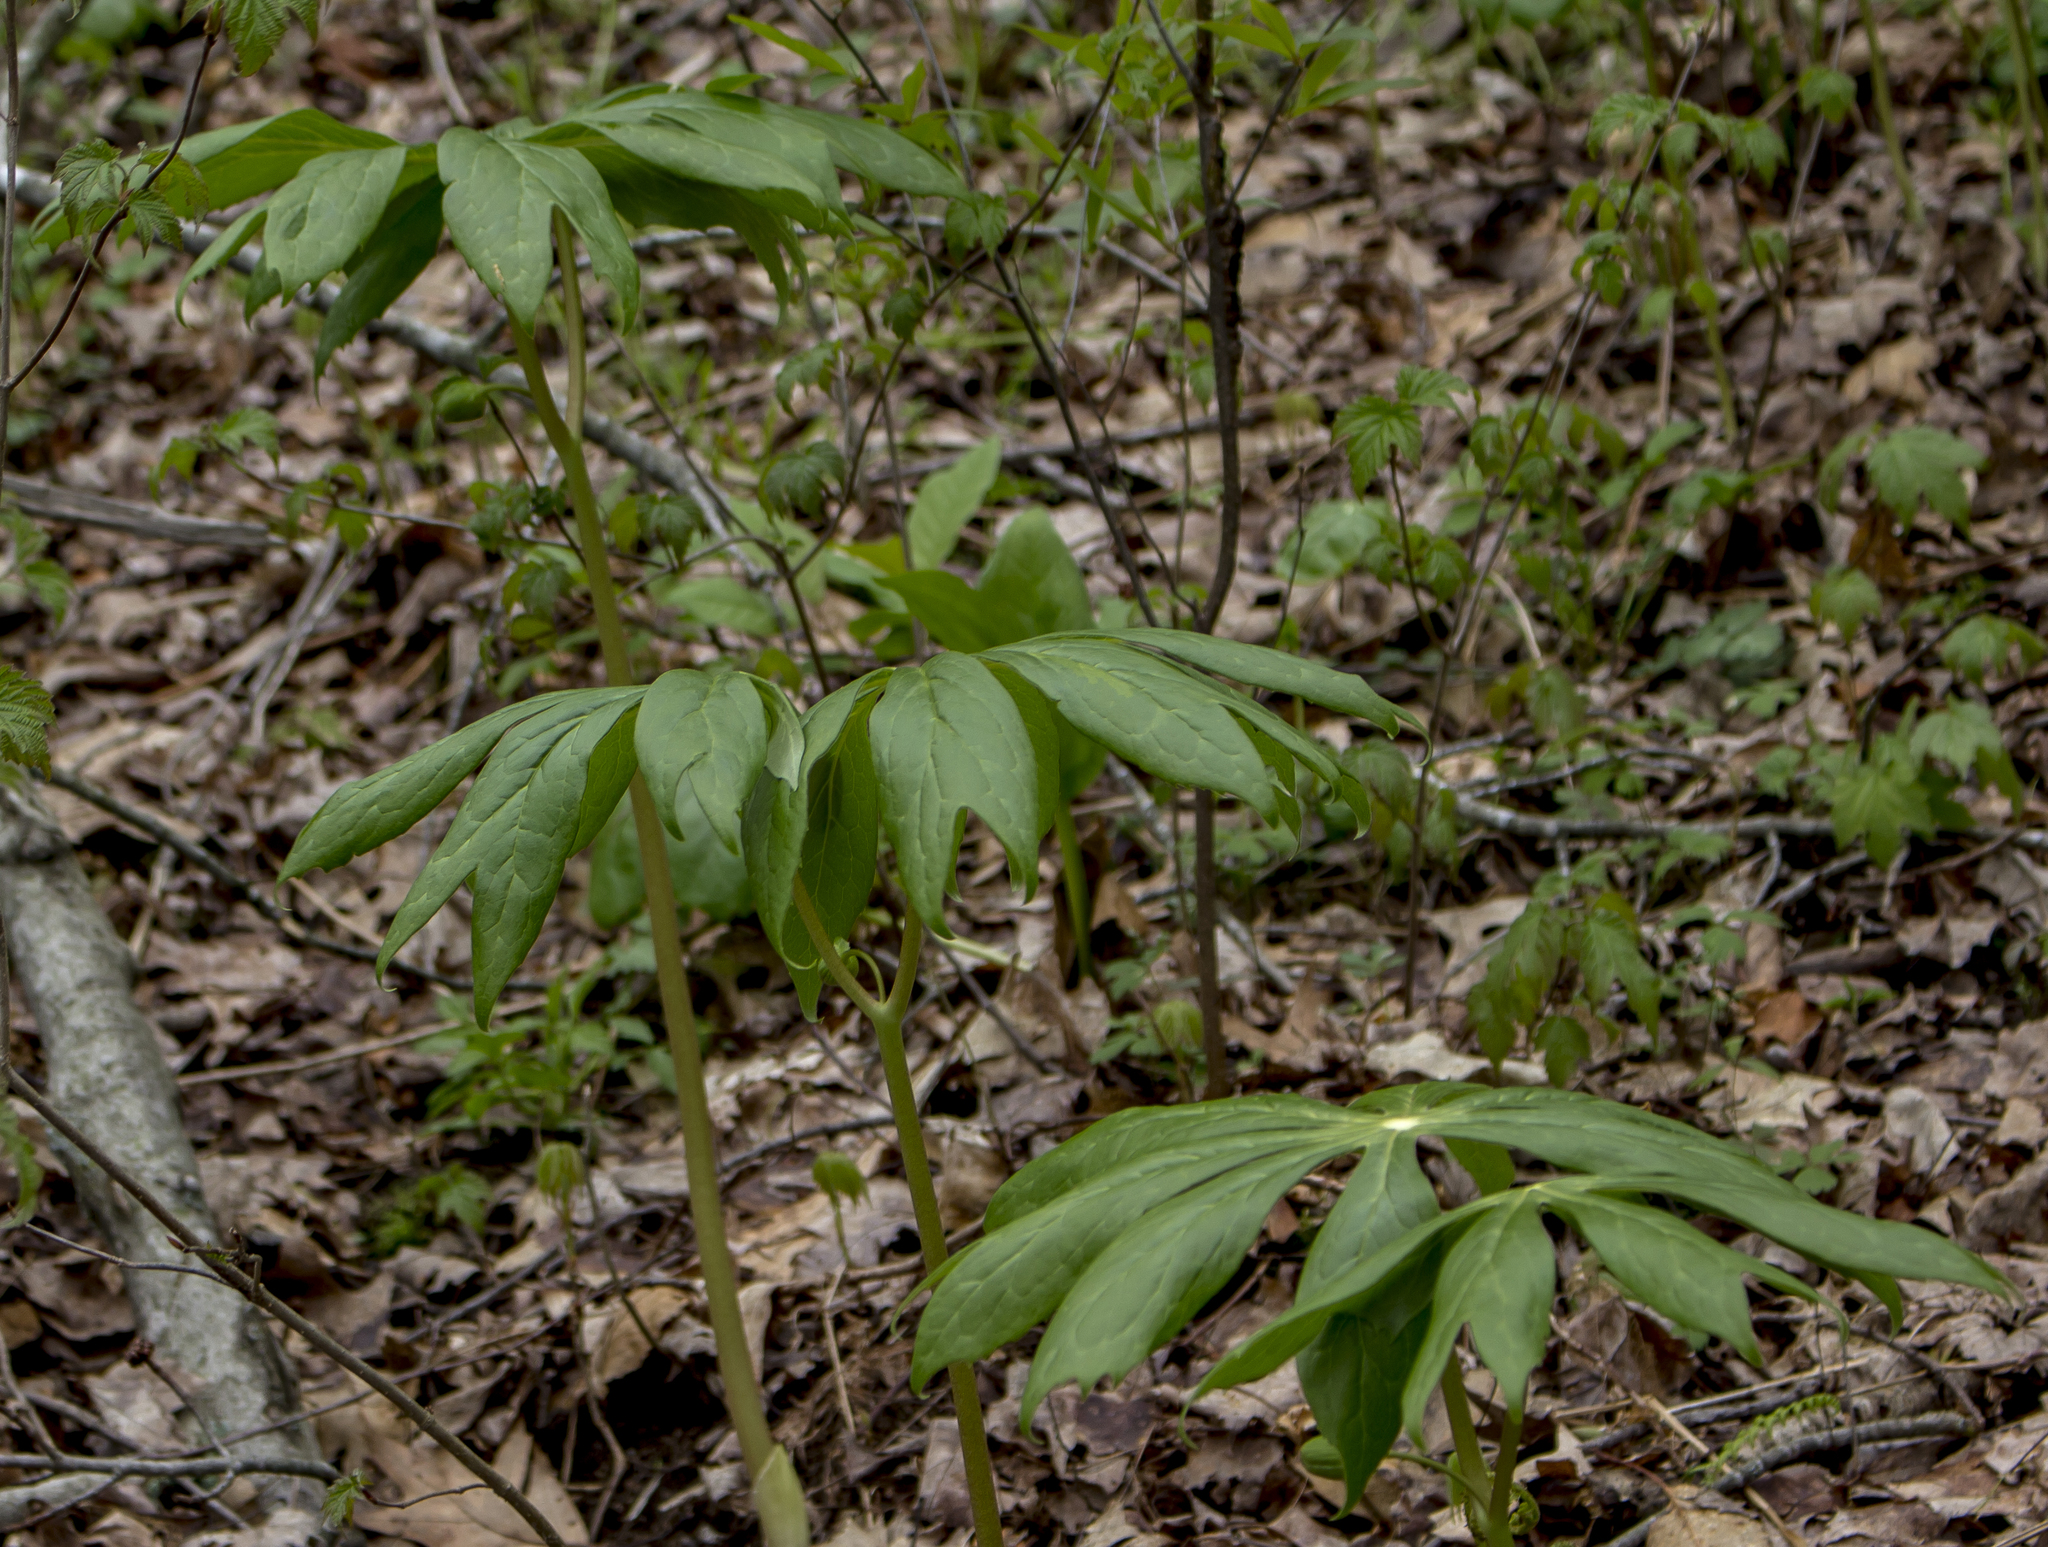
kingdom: Plantae
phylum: Tracheophyta
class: Magnoliopsida
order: Ranunculales
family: Berberidaceae
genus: Podophyllum
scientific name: Podophyllum peltatum
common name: Wild mandrake
